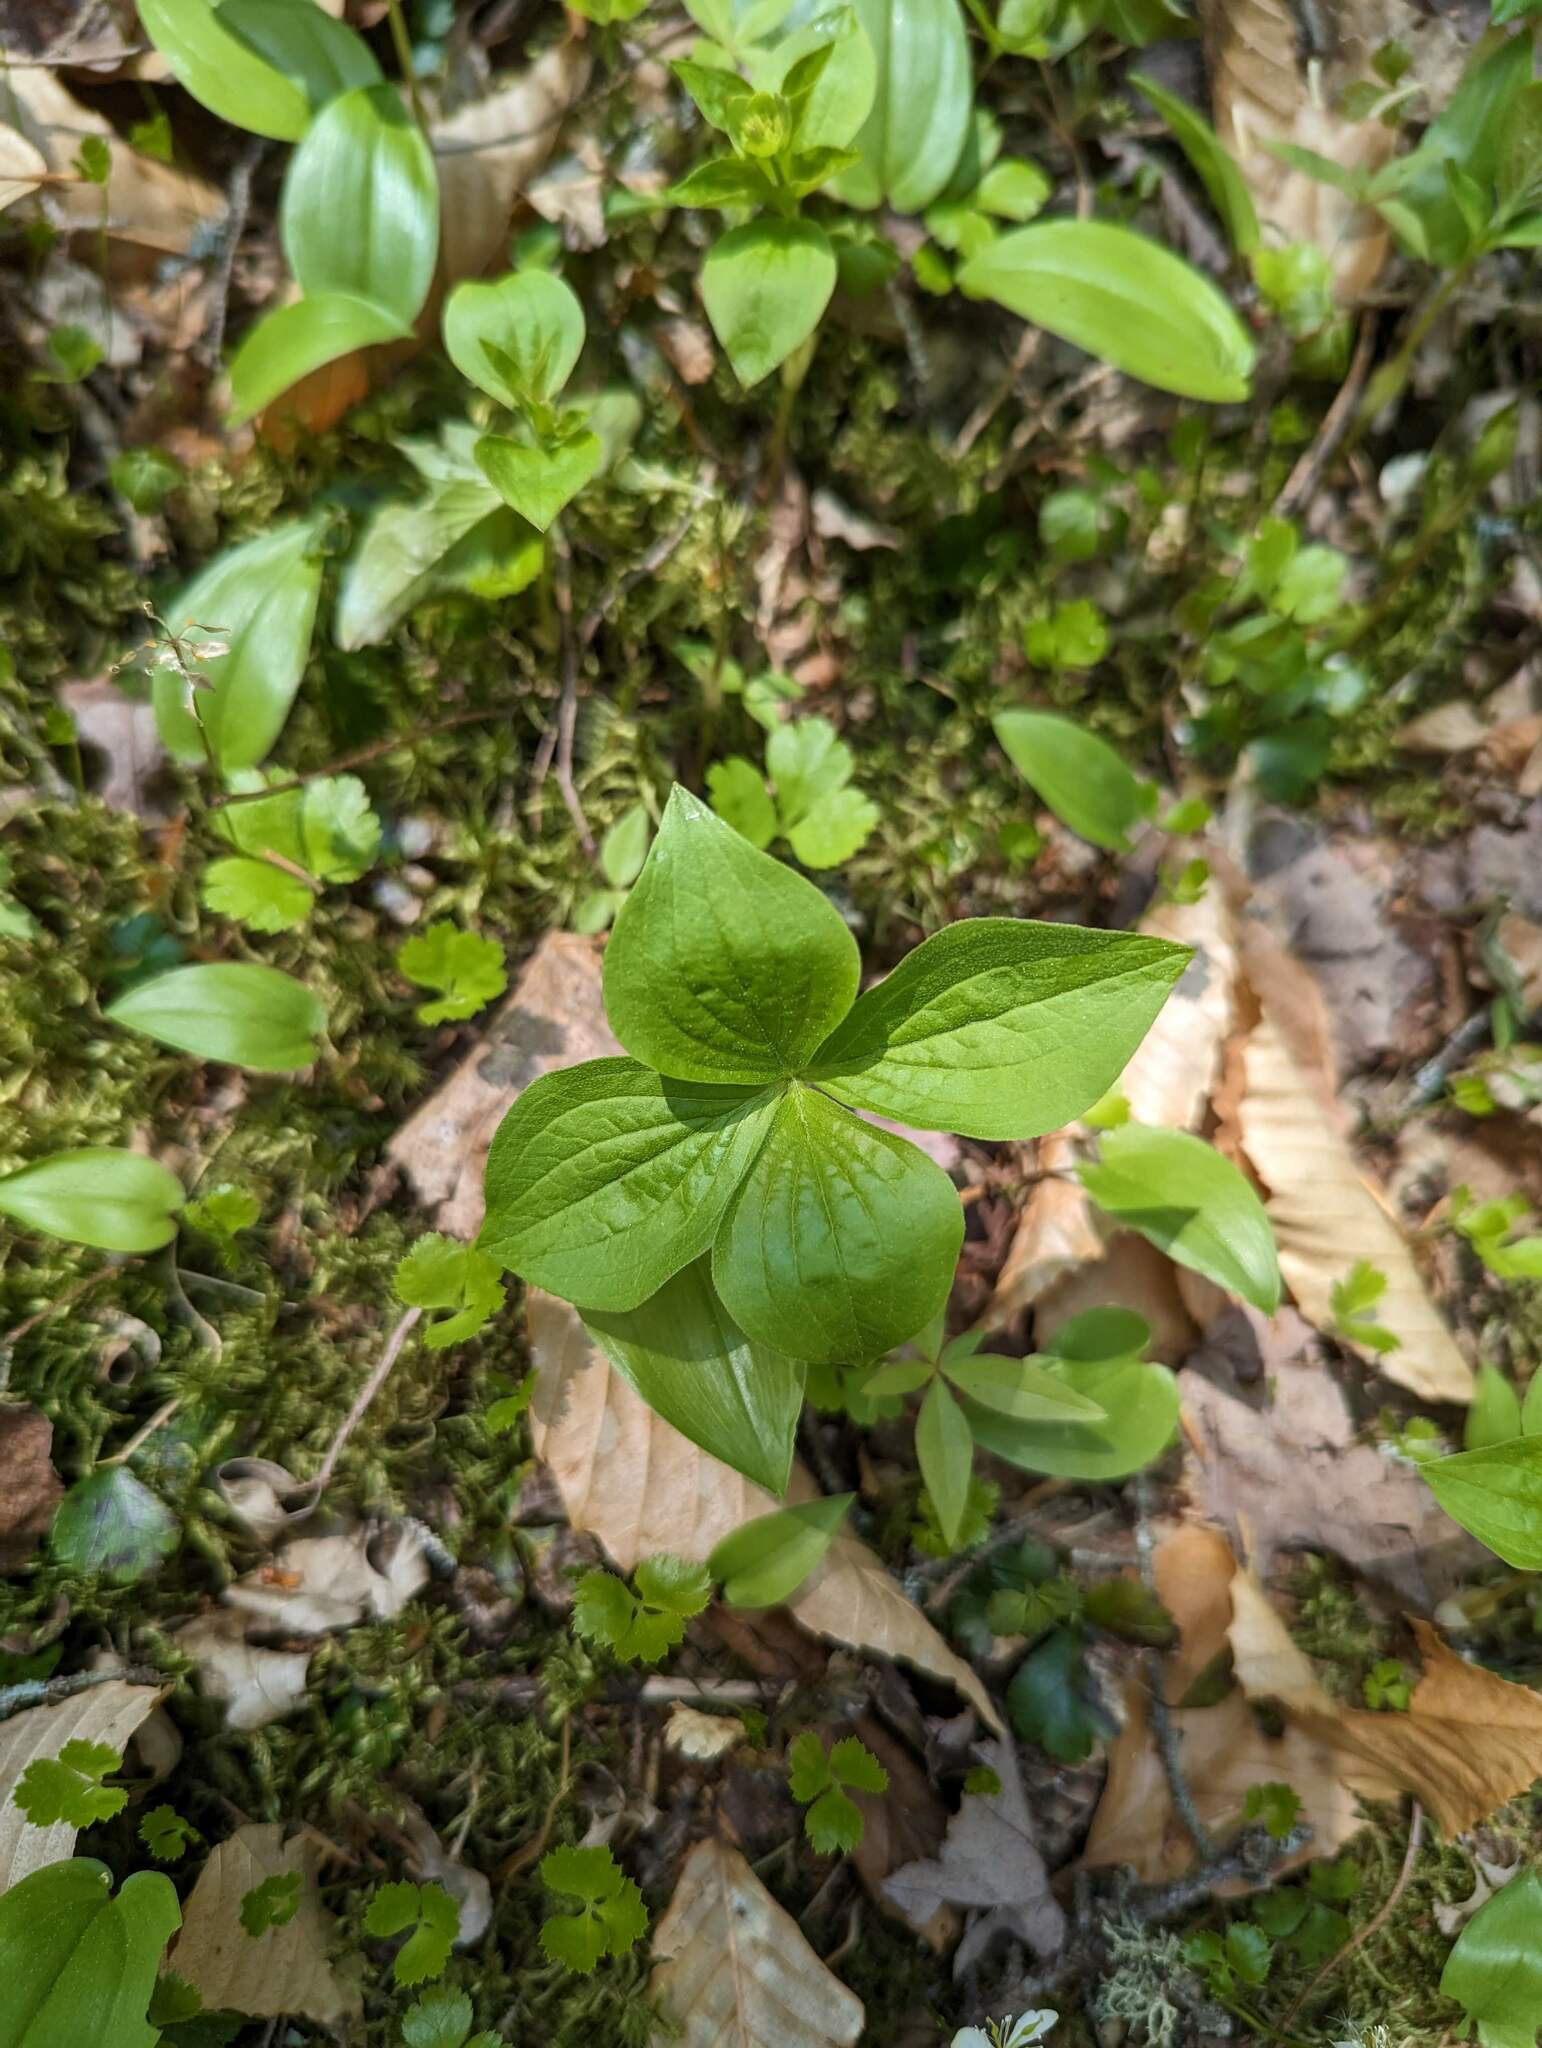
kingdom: Plantae
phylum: Tracheophyta
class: Magnoliopsida
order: Cornales
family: Cornaceae
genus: Cornus
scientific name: Cornus canadensis
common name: Creeping dogwood
